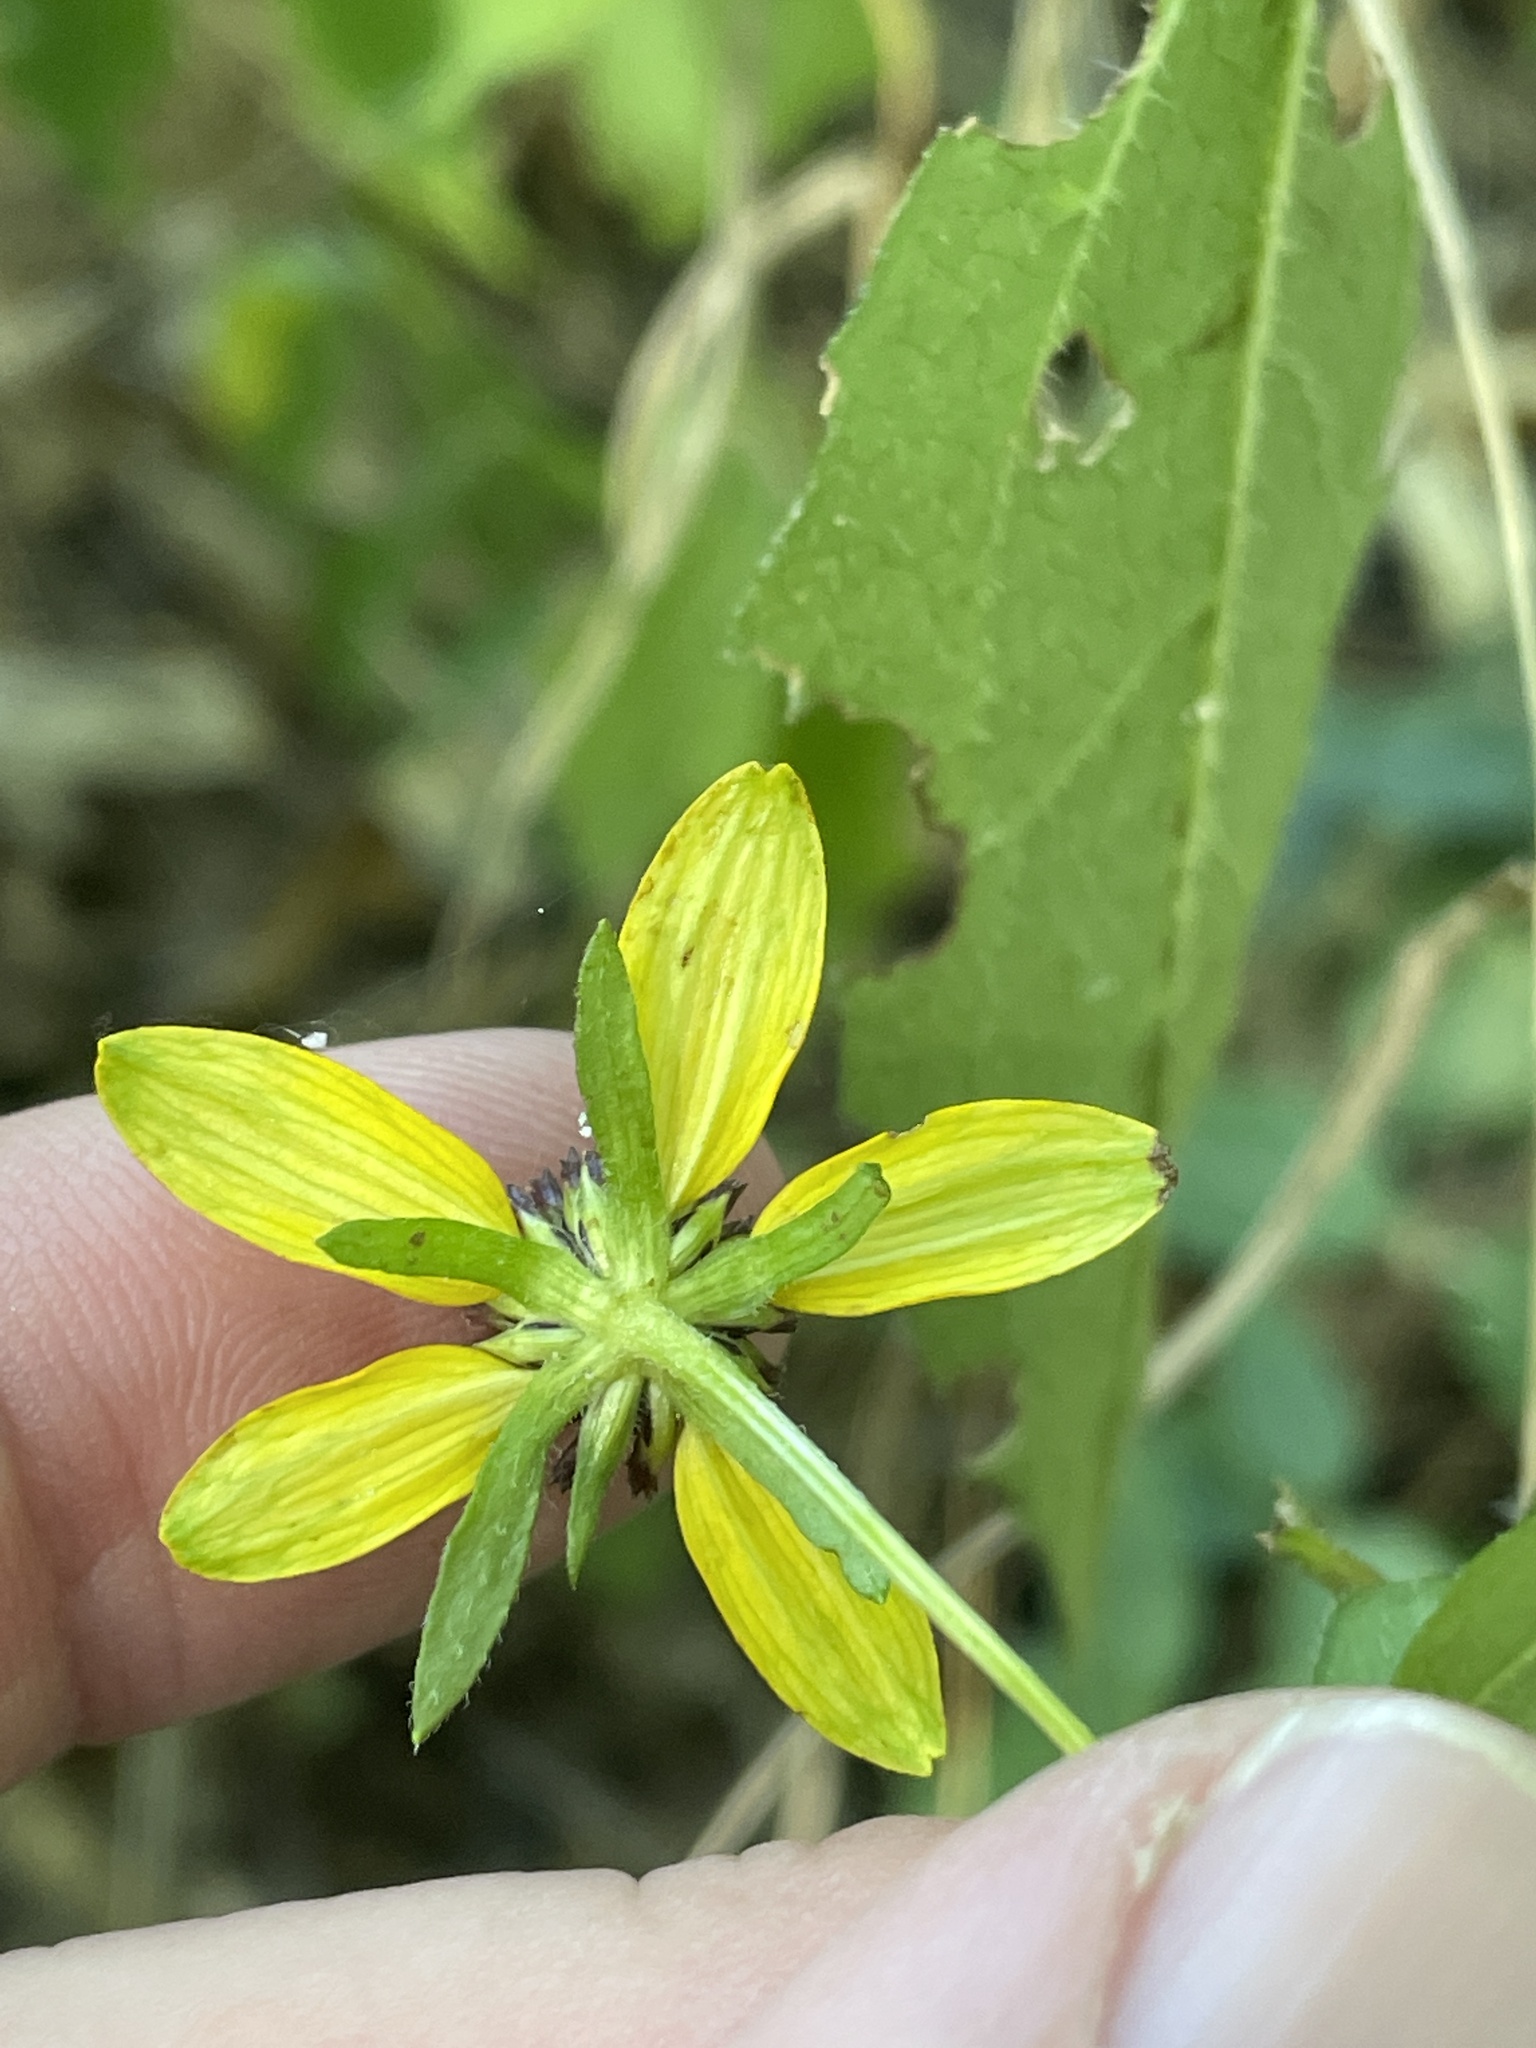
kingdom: Plantae
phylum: Tracheophyta
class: Magnoliopsida
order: Asterales
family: Asteraceae
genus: Rudbeckia
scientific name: Rudbeckia triloba
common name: Thin-leaved coneflower
